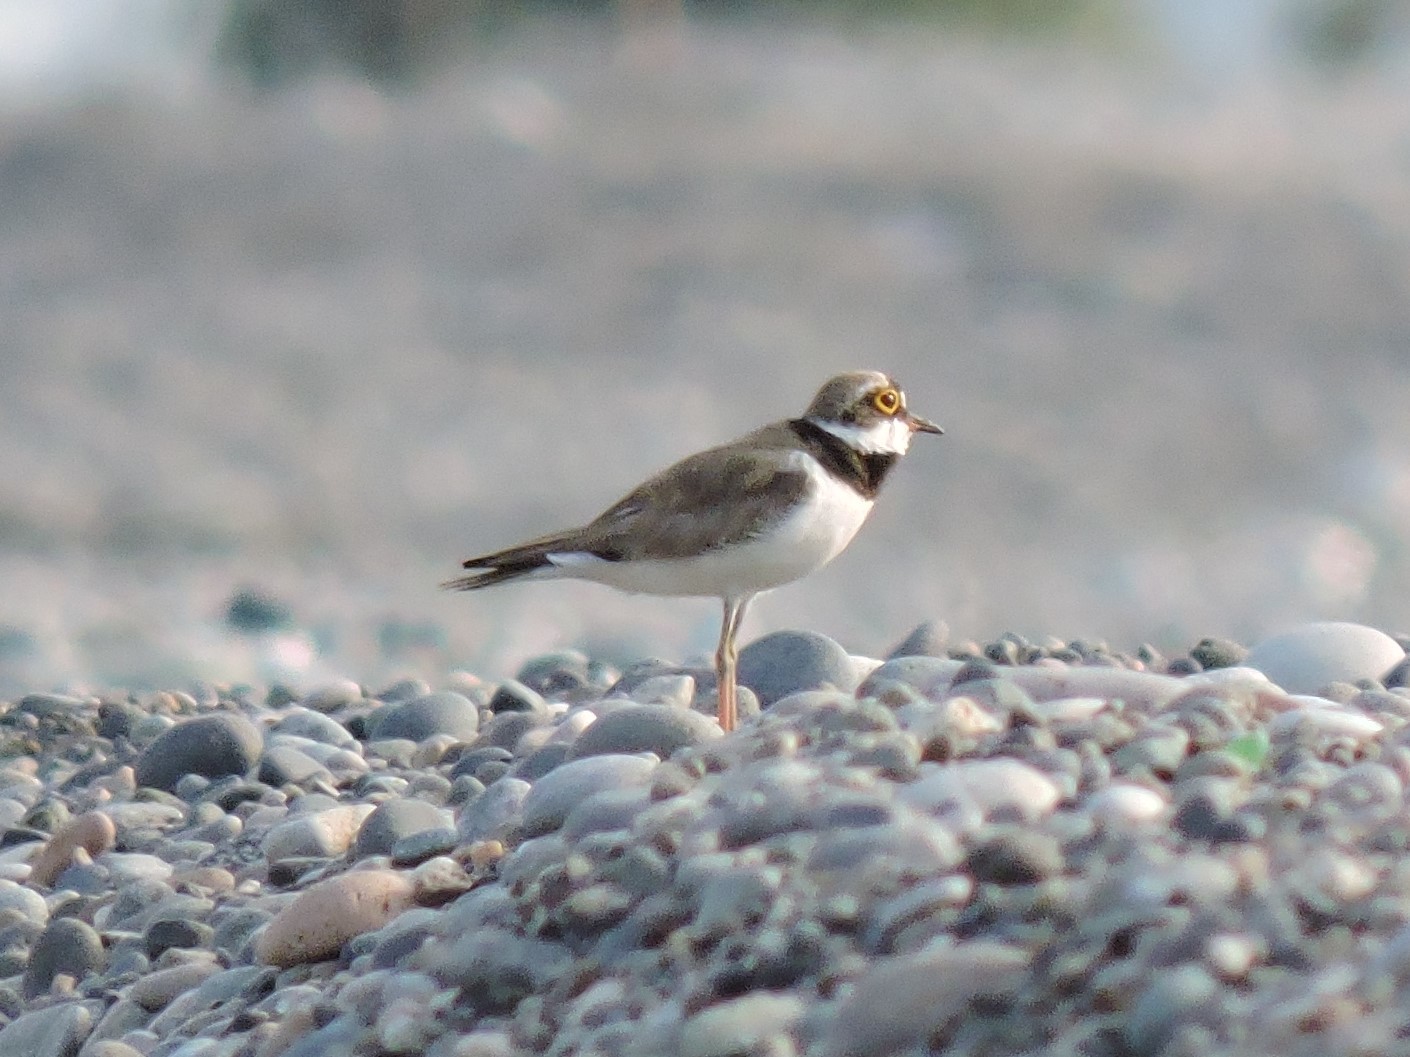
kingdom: Animalia
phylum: Chordata
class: Aves
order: Charadriiformes
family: Charadriidae
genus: Charadrius
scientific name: Charadrius dubius
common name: Little ringed plover
